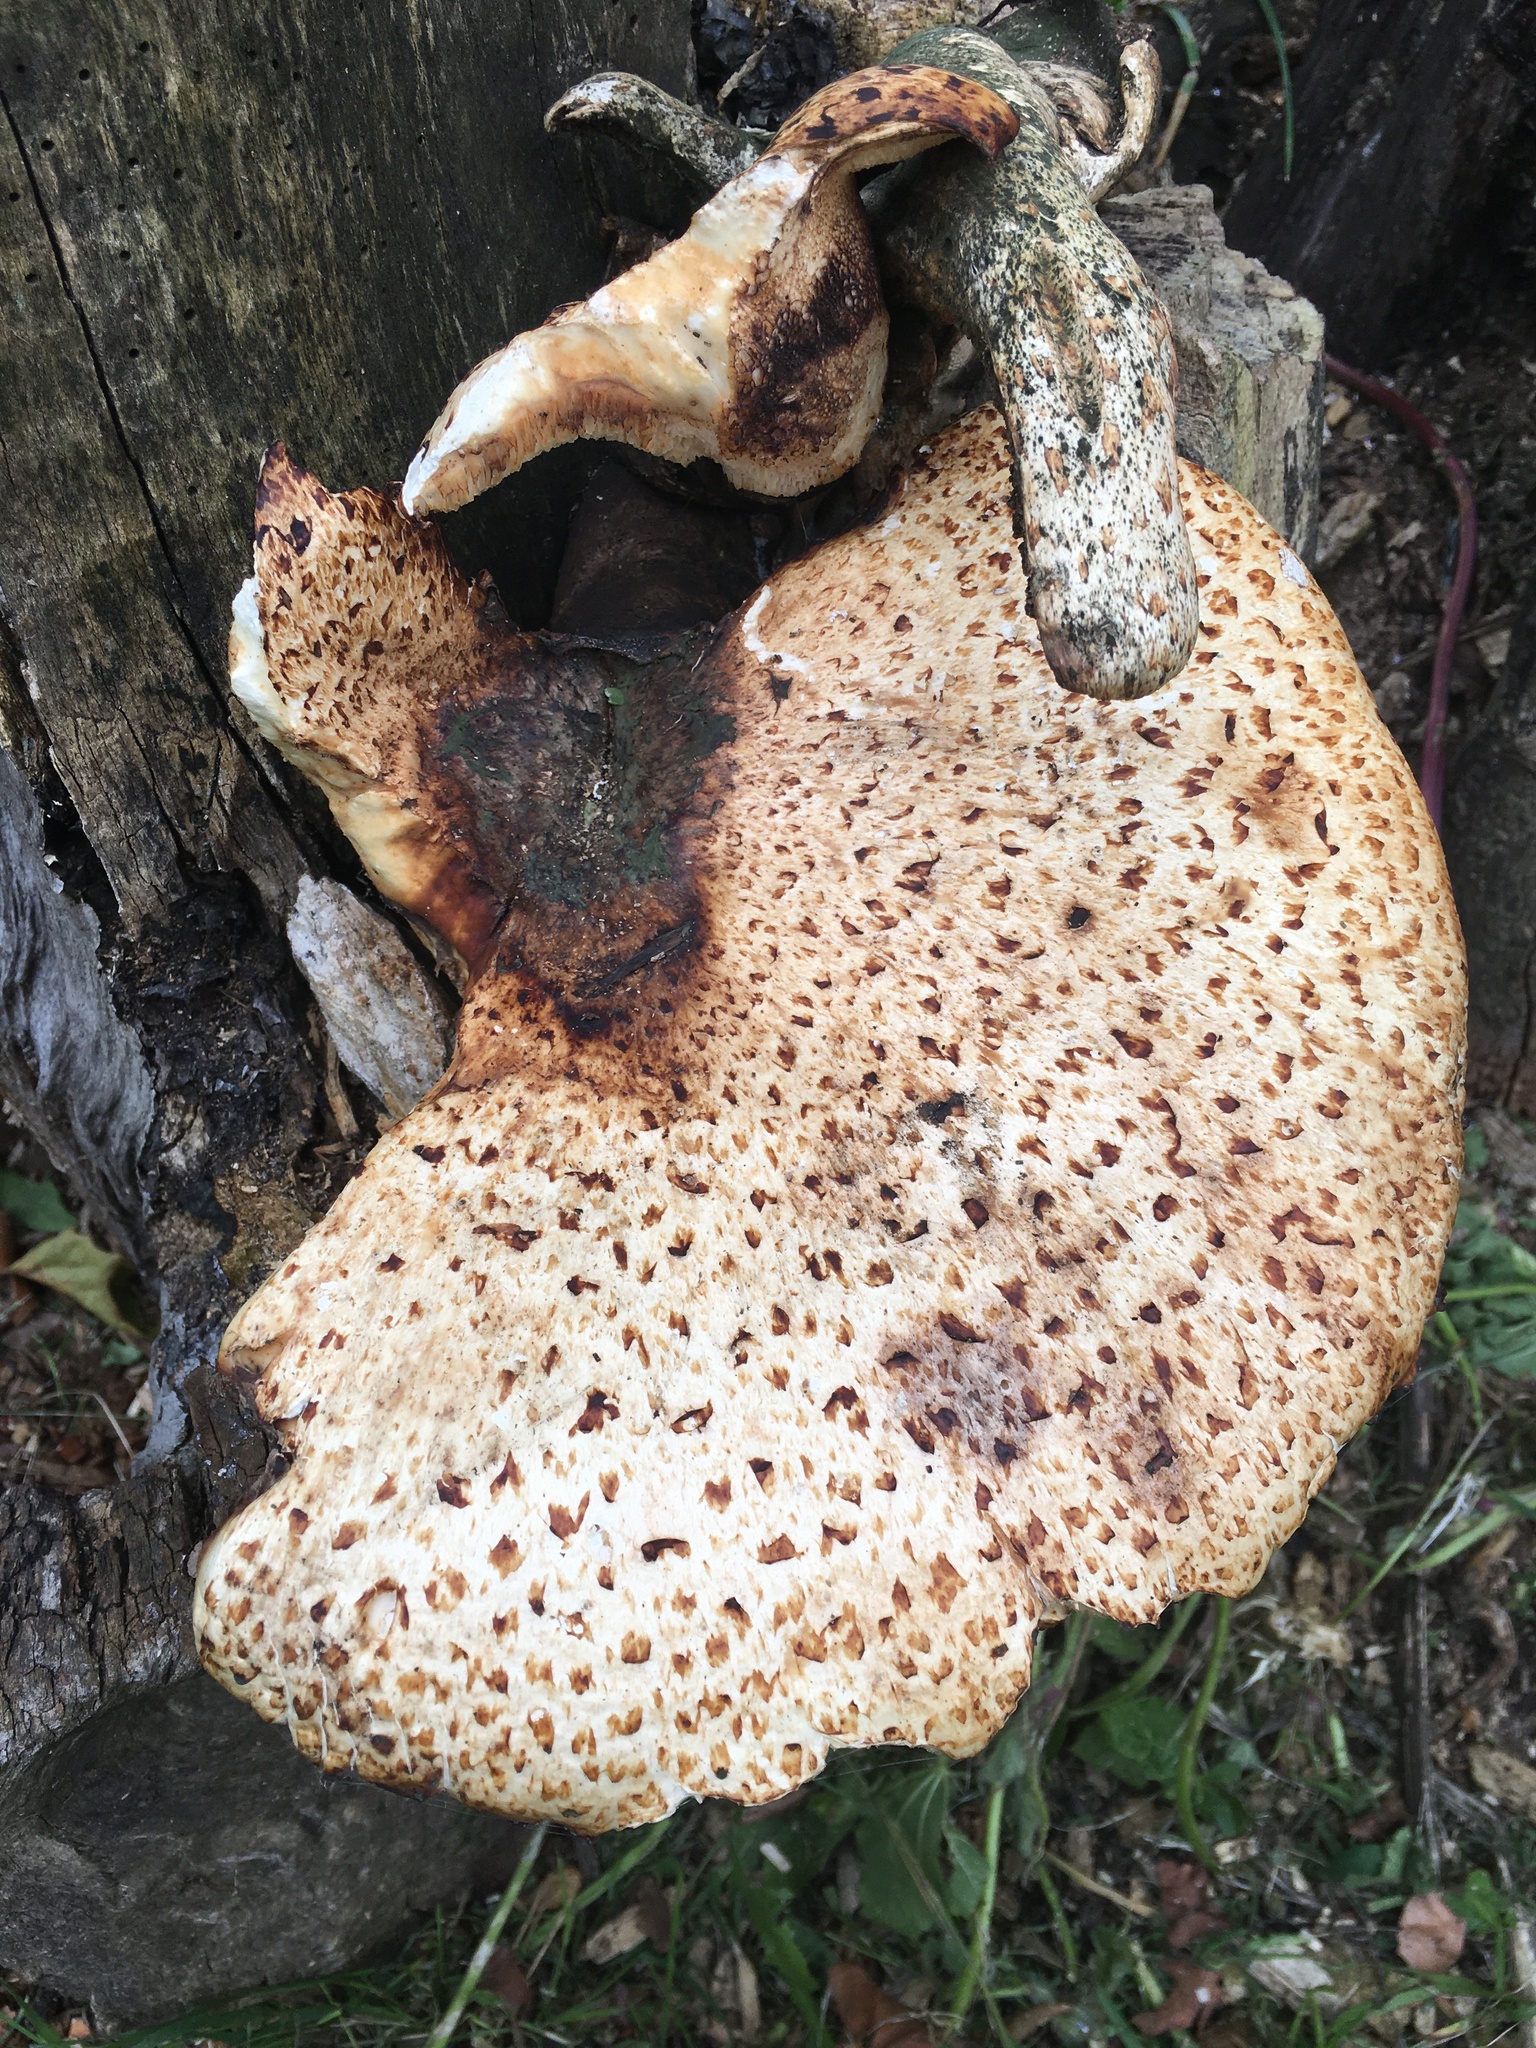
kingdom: Fungi
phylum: Basidiomycota
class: Agaricomycetes
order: Polyporales
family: Polyporaceae
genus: Cerioporus
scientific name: Cerioporus squamosus
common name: Dryad's saddle
